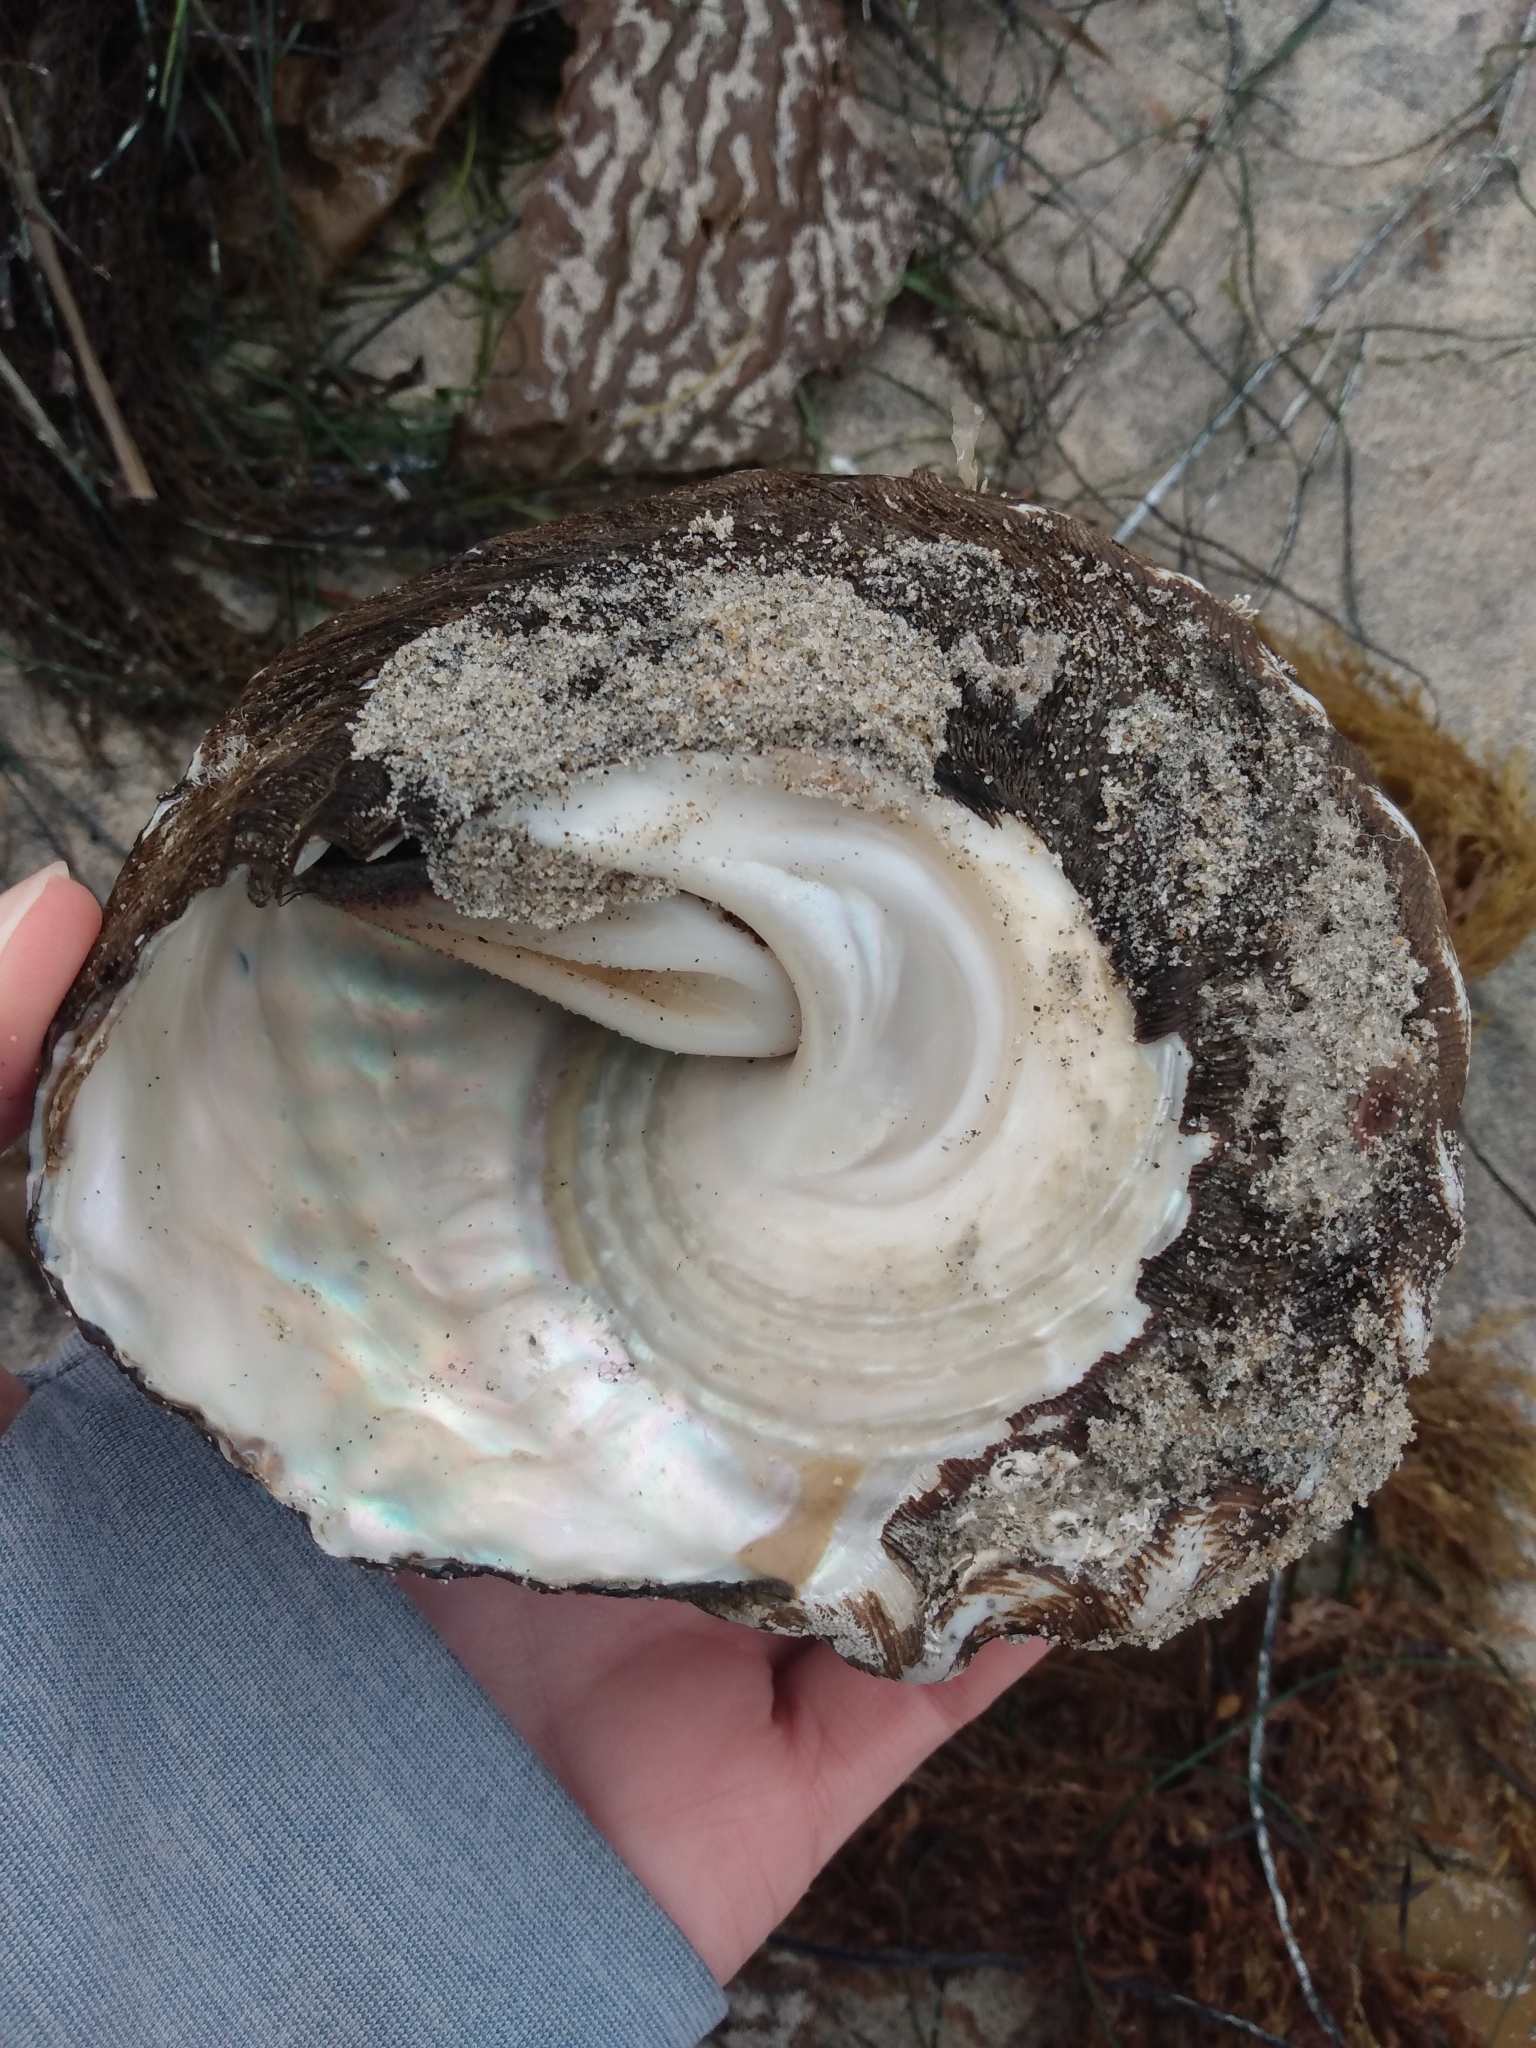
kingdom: Animalia
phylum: Mollusca
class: Gastropoda
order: Trochida
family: Turbinidae
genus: Megastraea
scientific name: Megastraea undosa
